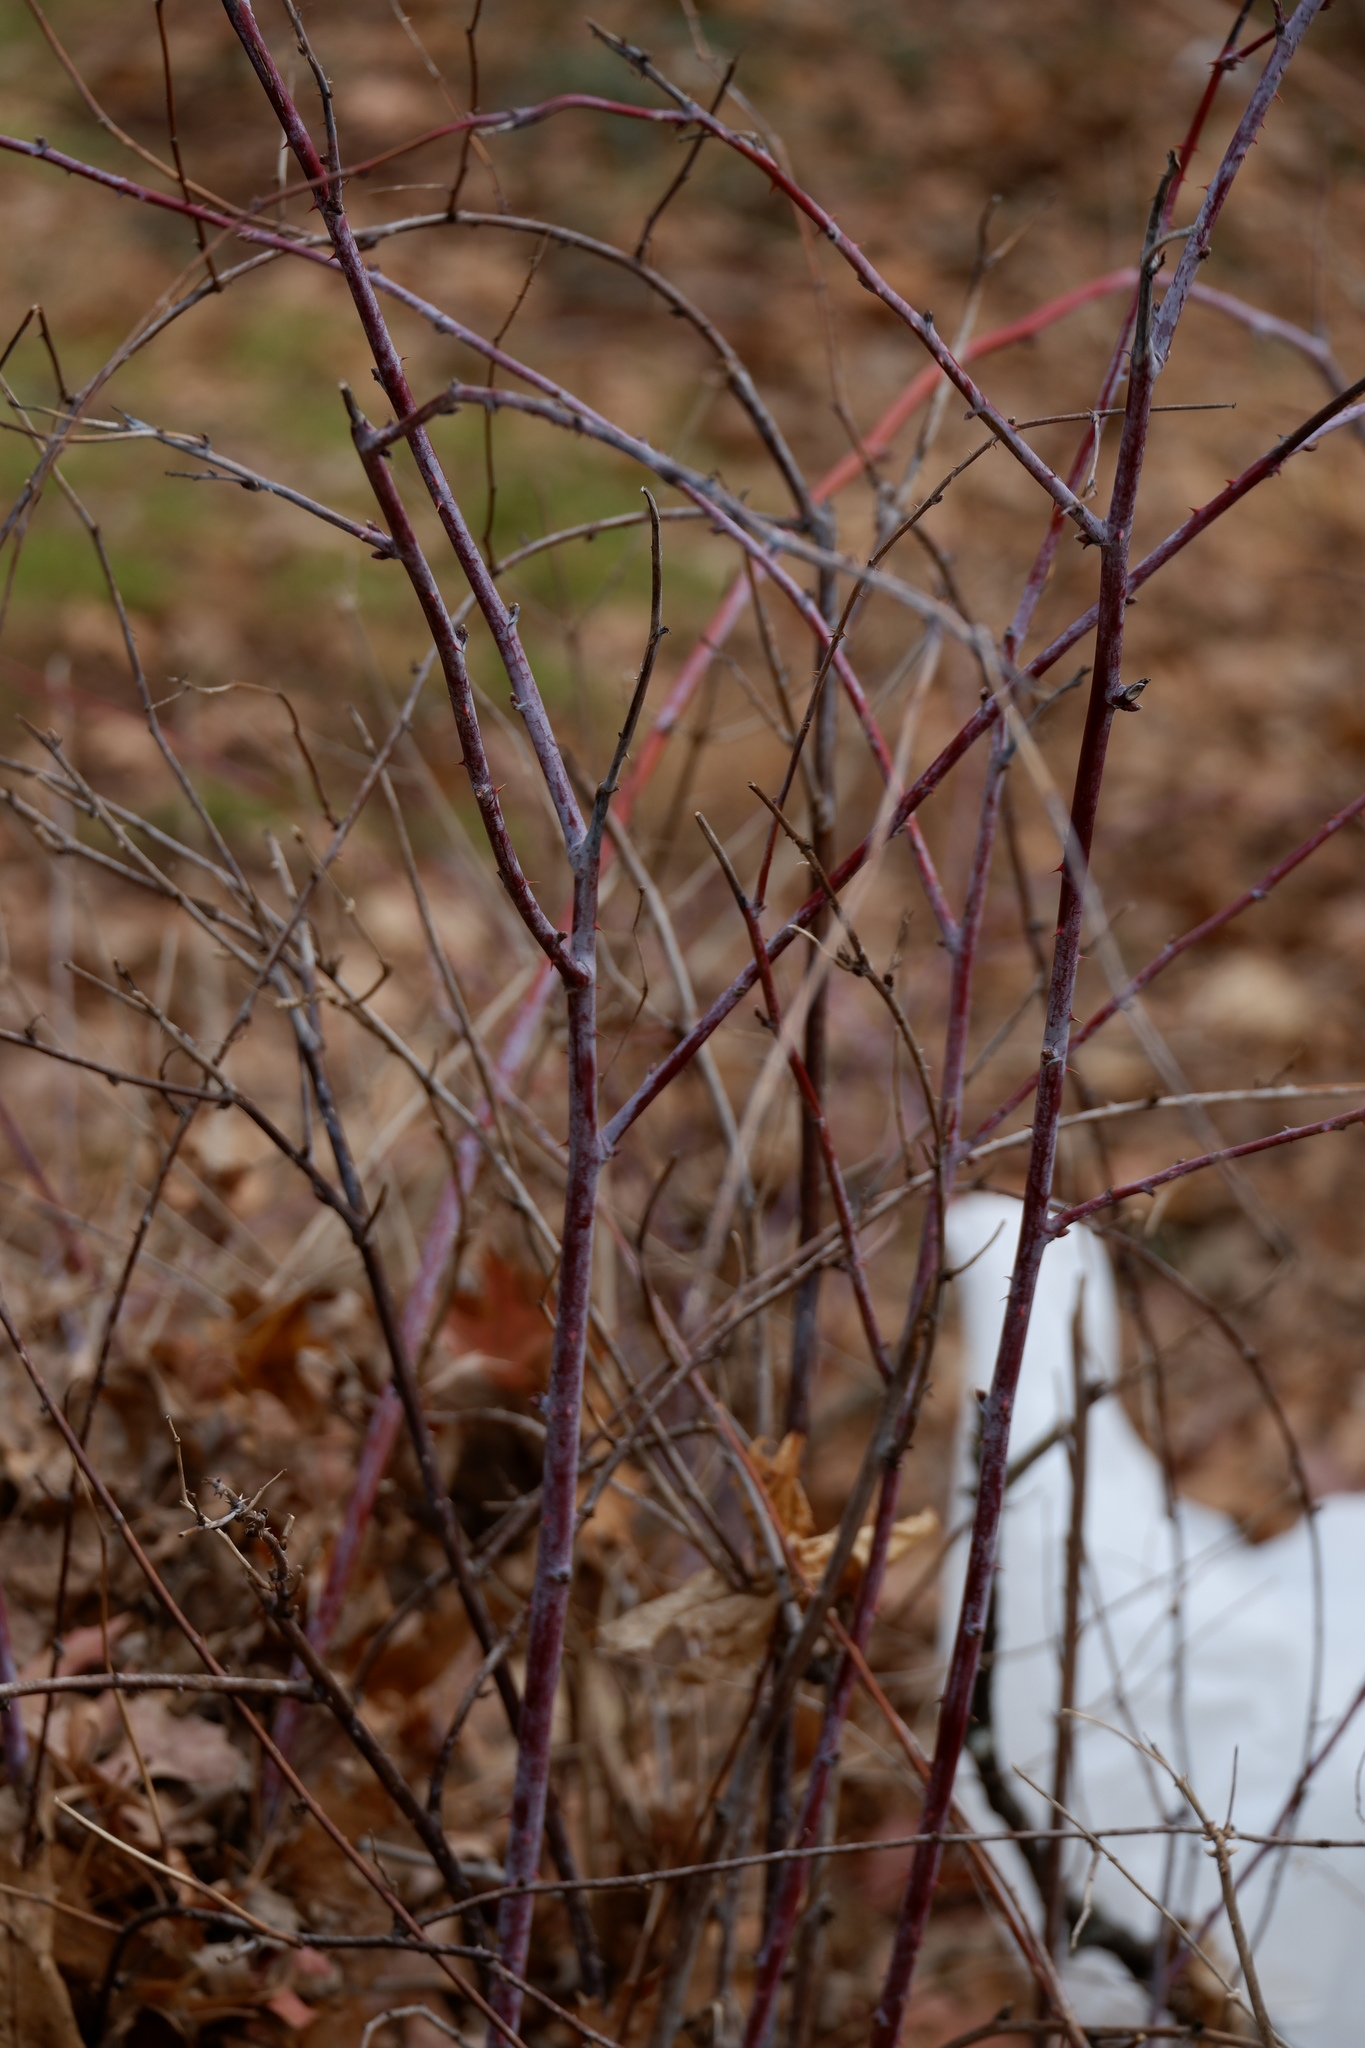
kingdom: Plantae
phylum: Tracheophyta
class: Magnoliopsida
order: Rosales
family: Rosaceae
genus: Rubus
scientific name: Rubus occidentalis
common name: Black raspberry
